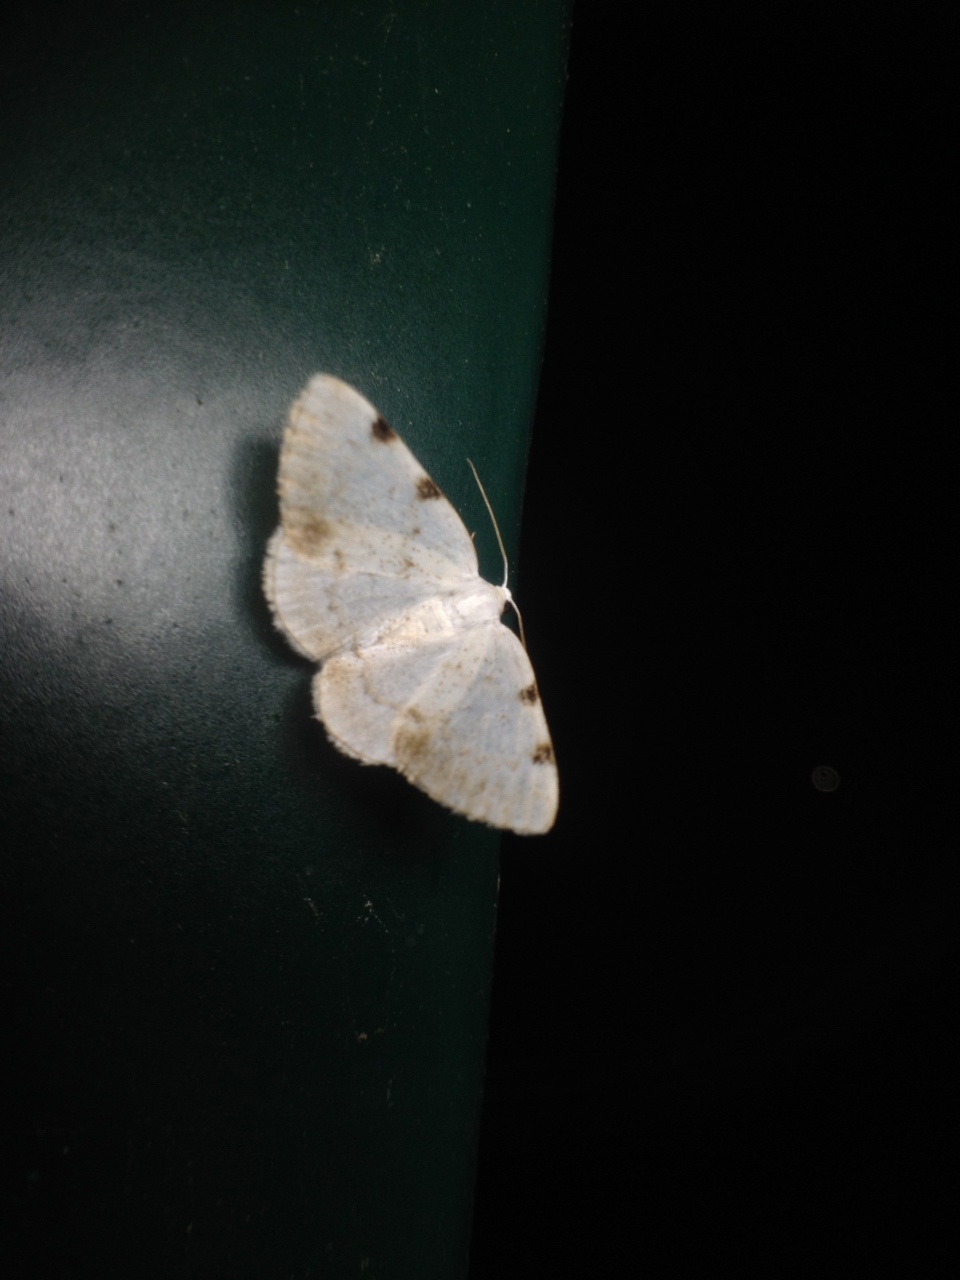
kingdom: Animalia
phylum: Arthropoda
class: Insecta
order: Lepidoptera
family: Geometridae
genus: Lomographa
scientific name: Lomographa bimaculata
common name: White-pinion spotted
